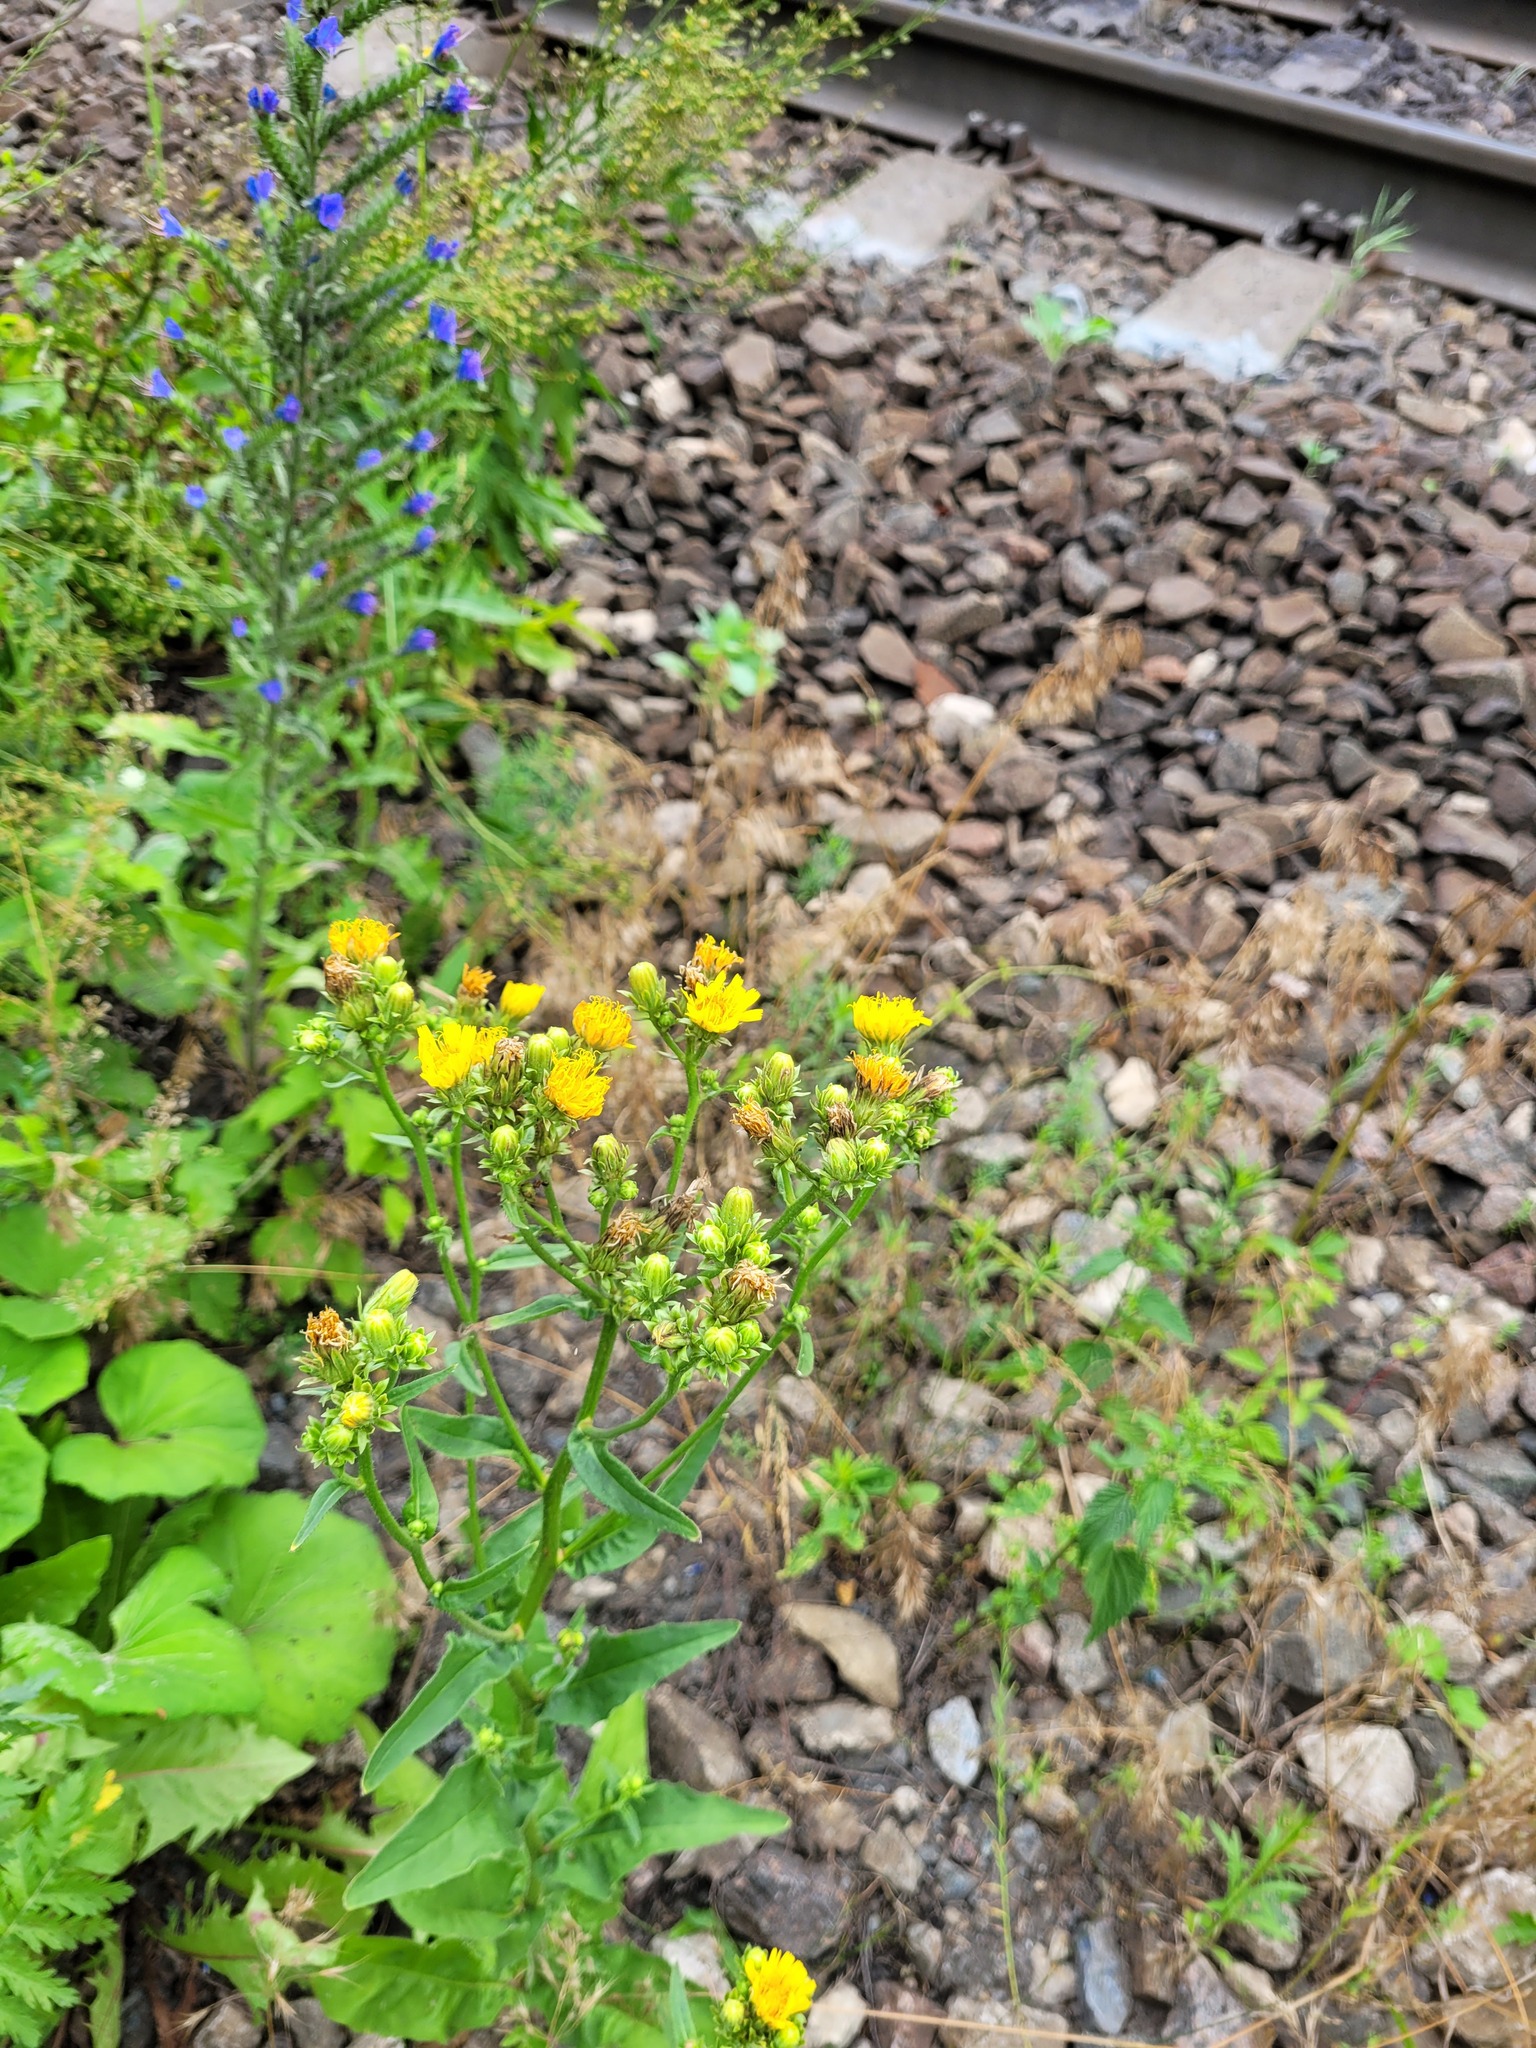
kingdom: Plantae
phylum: Tracheophyta
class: Magnoliopsida
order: Asterales
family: Asteraceae
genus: Picris
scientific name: Picris hieracioides
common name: Hawkweed oxtongue
